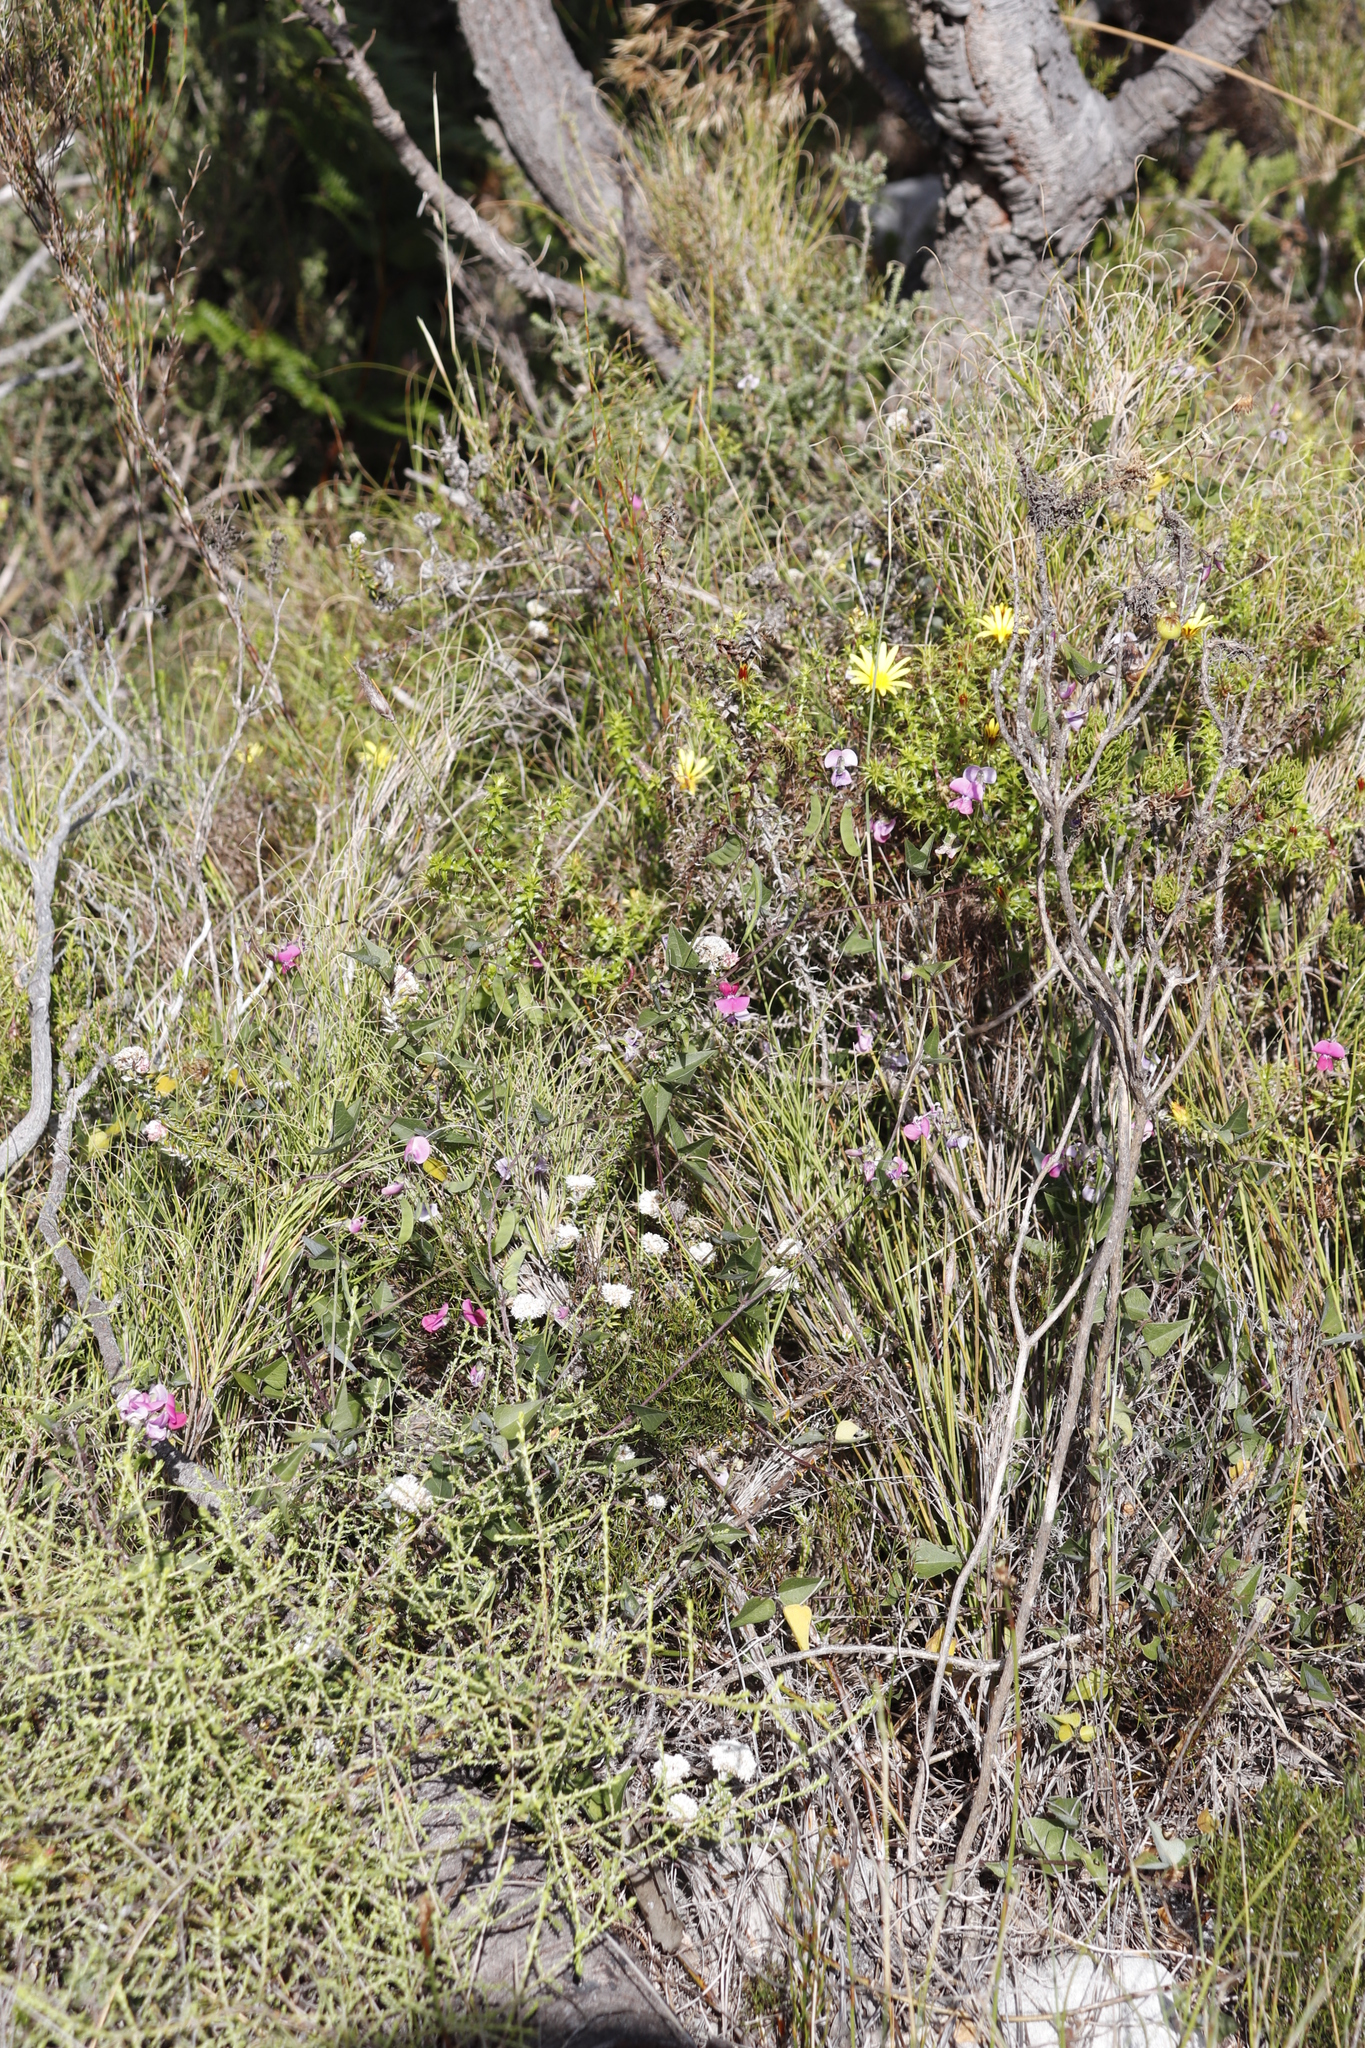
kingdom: Plantae
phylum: Tracheophyta
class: Magnoliopsida
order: Fabales
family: Fabaceae
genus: Dipogon
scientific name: Dipogon lignosus
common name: Okie bean
